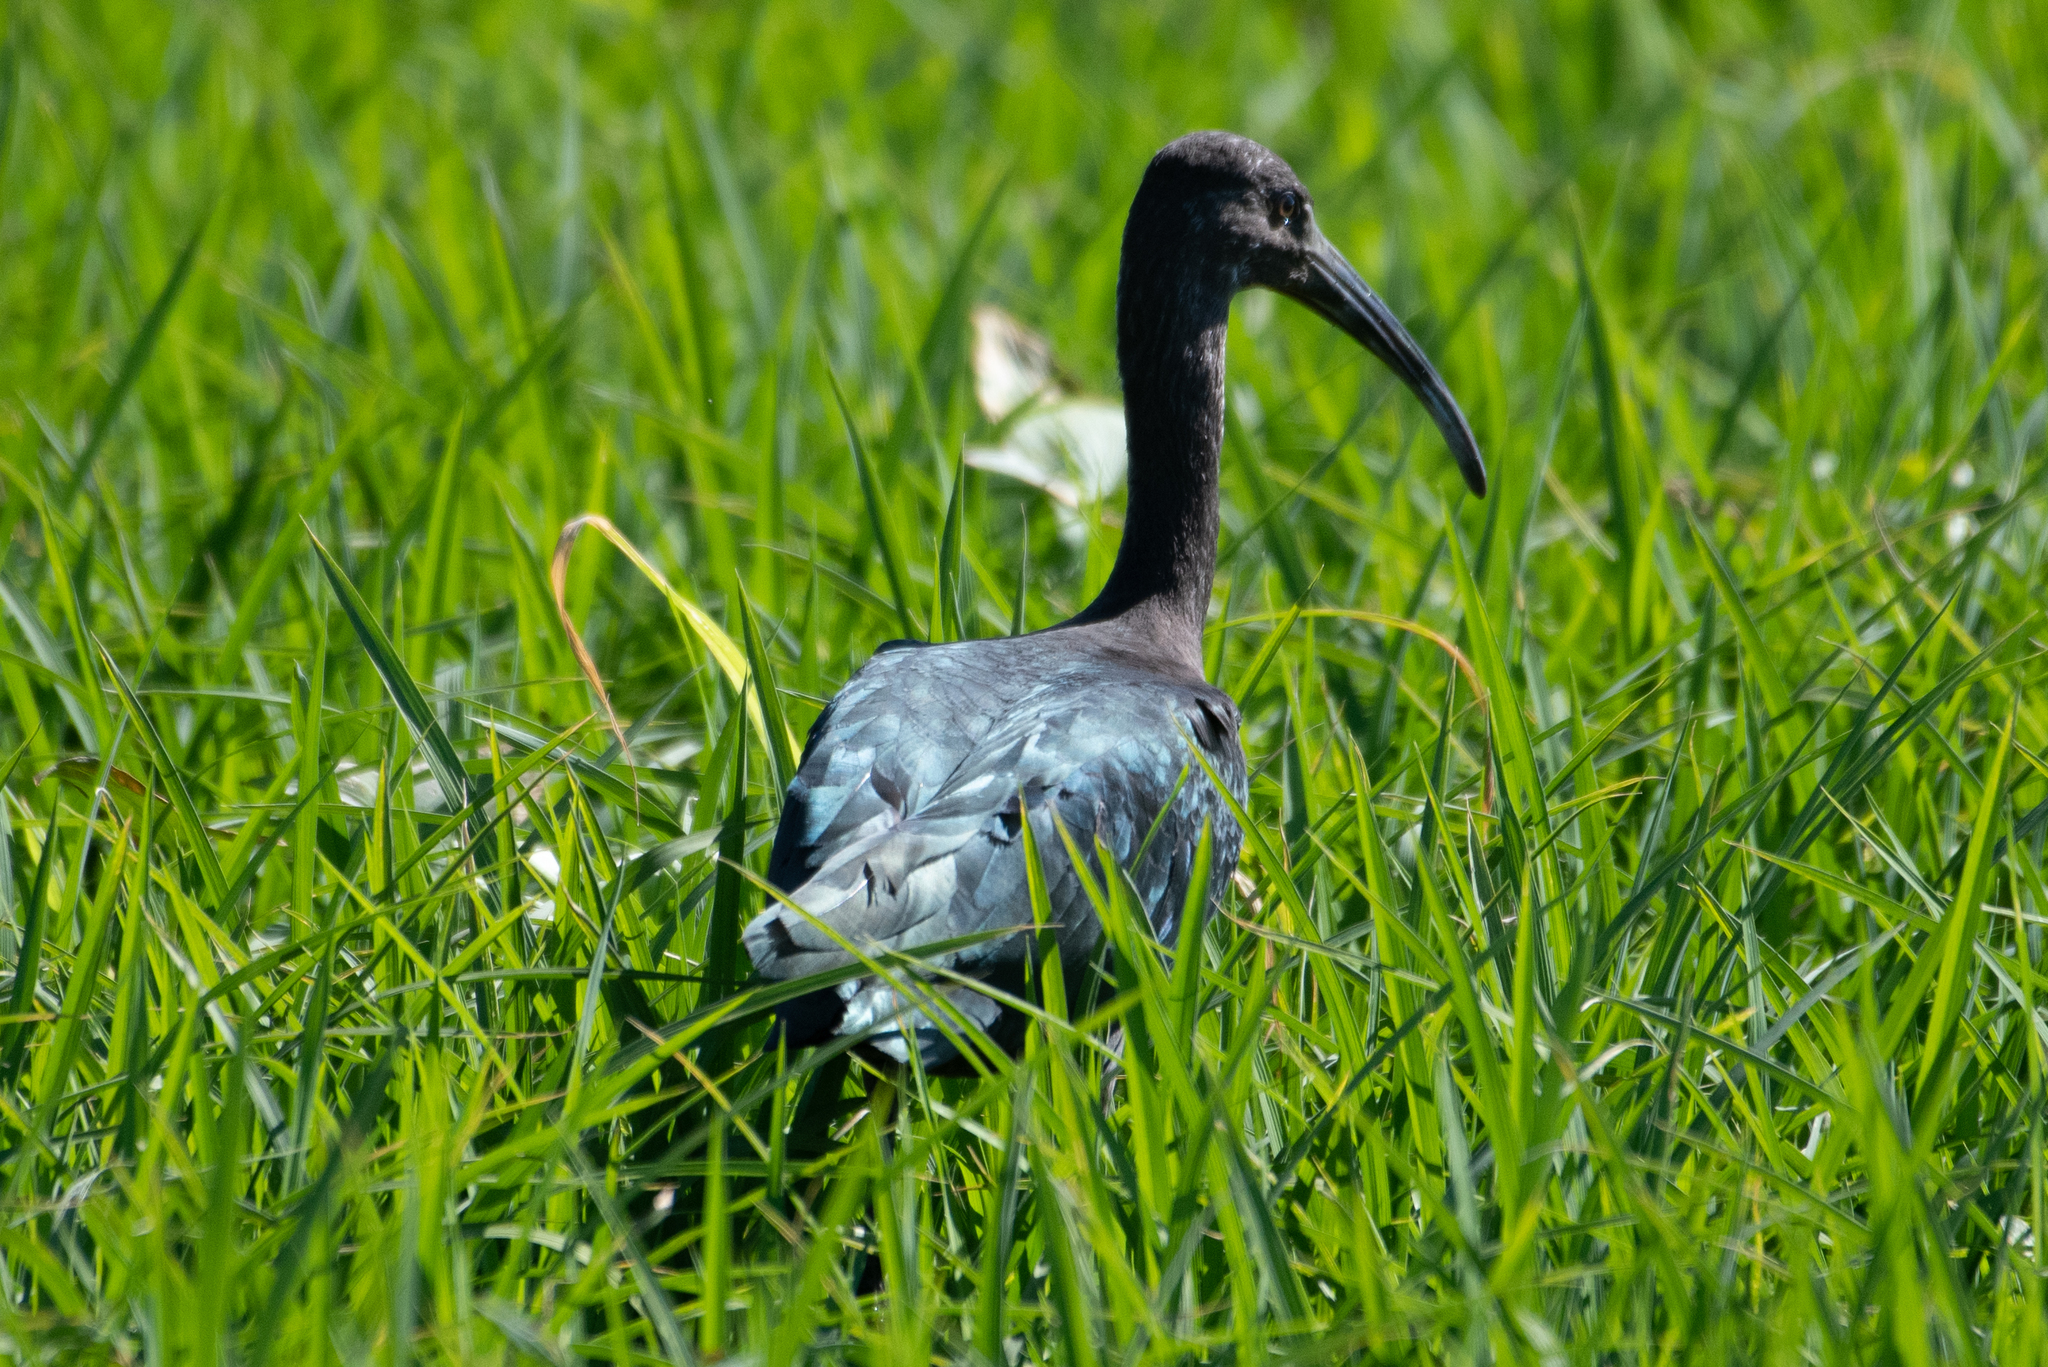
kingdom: Animalia
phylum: Chordata
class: Aves
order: Pelecaniformes
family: Threskiornithidae
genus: Plegadis
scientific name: Plegadis chihi
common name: White-faced ibis
